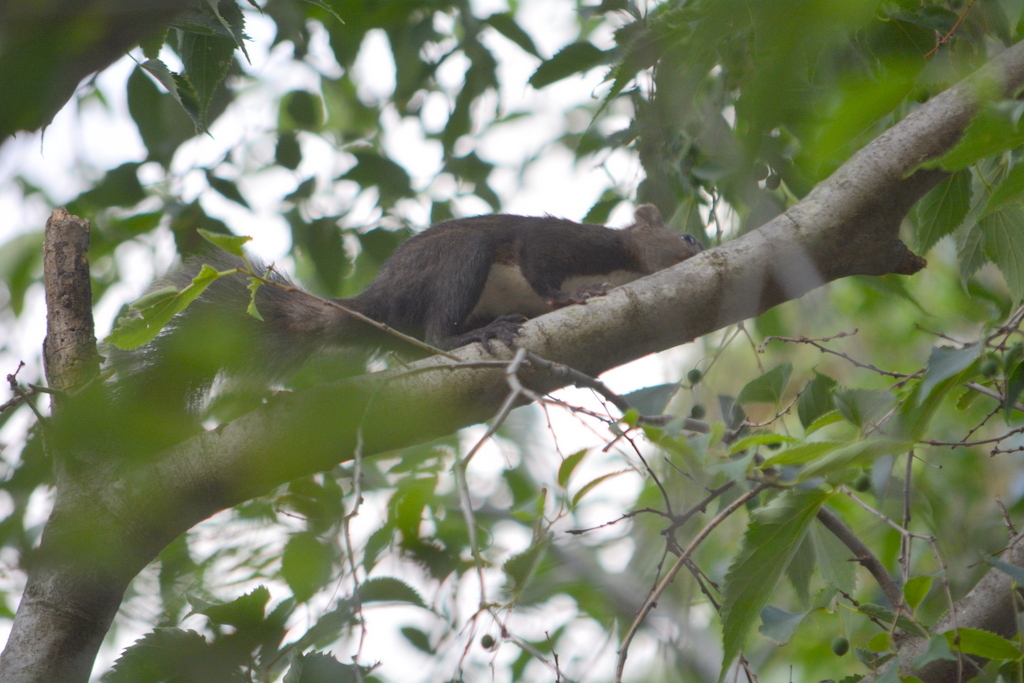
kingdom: Animalia
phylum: Chordata
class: Mammalia
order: Rodentia
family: Sciuridae
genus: Sciurus
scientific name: Sciurus vulgaris
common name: Eurasian red squirrel
